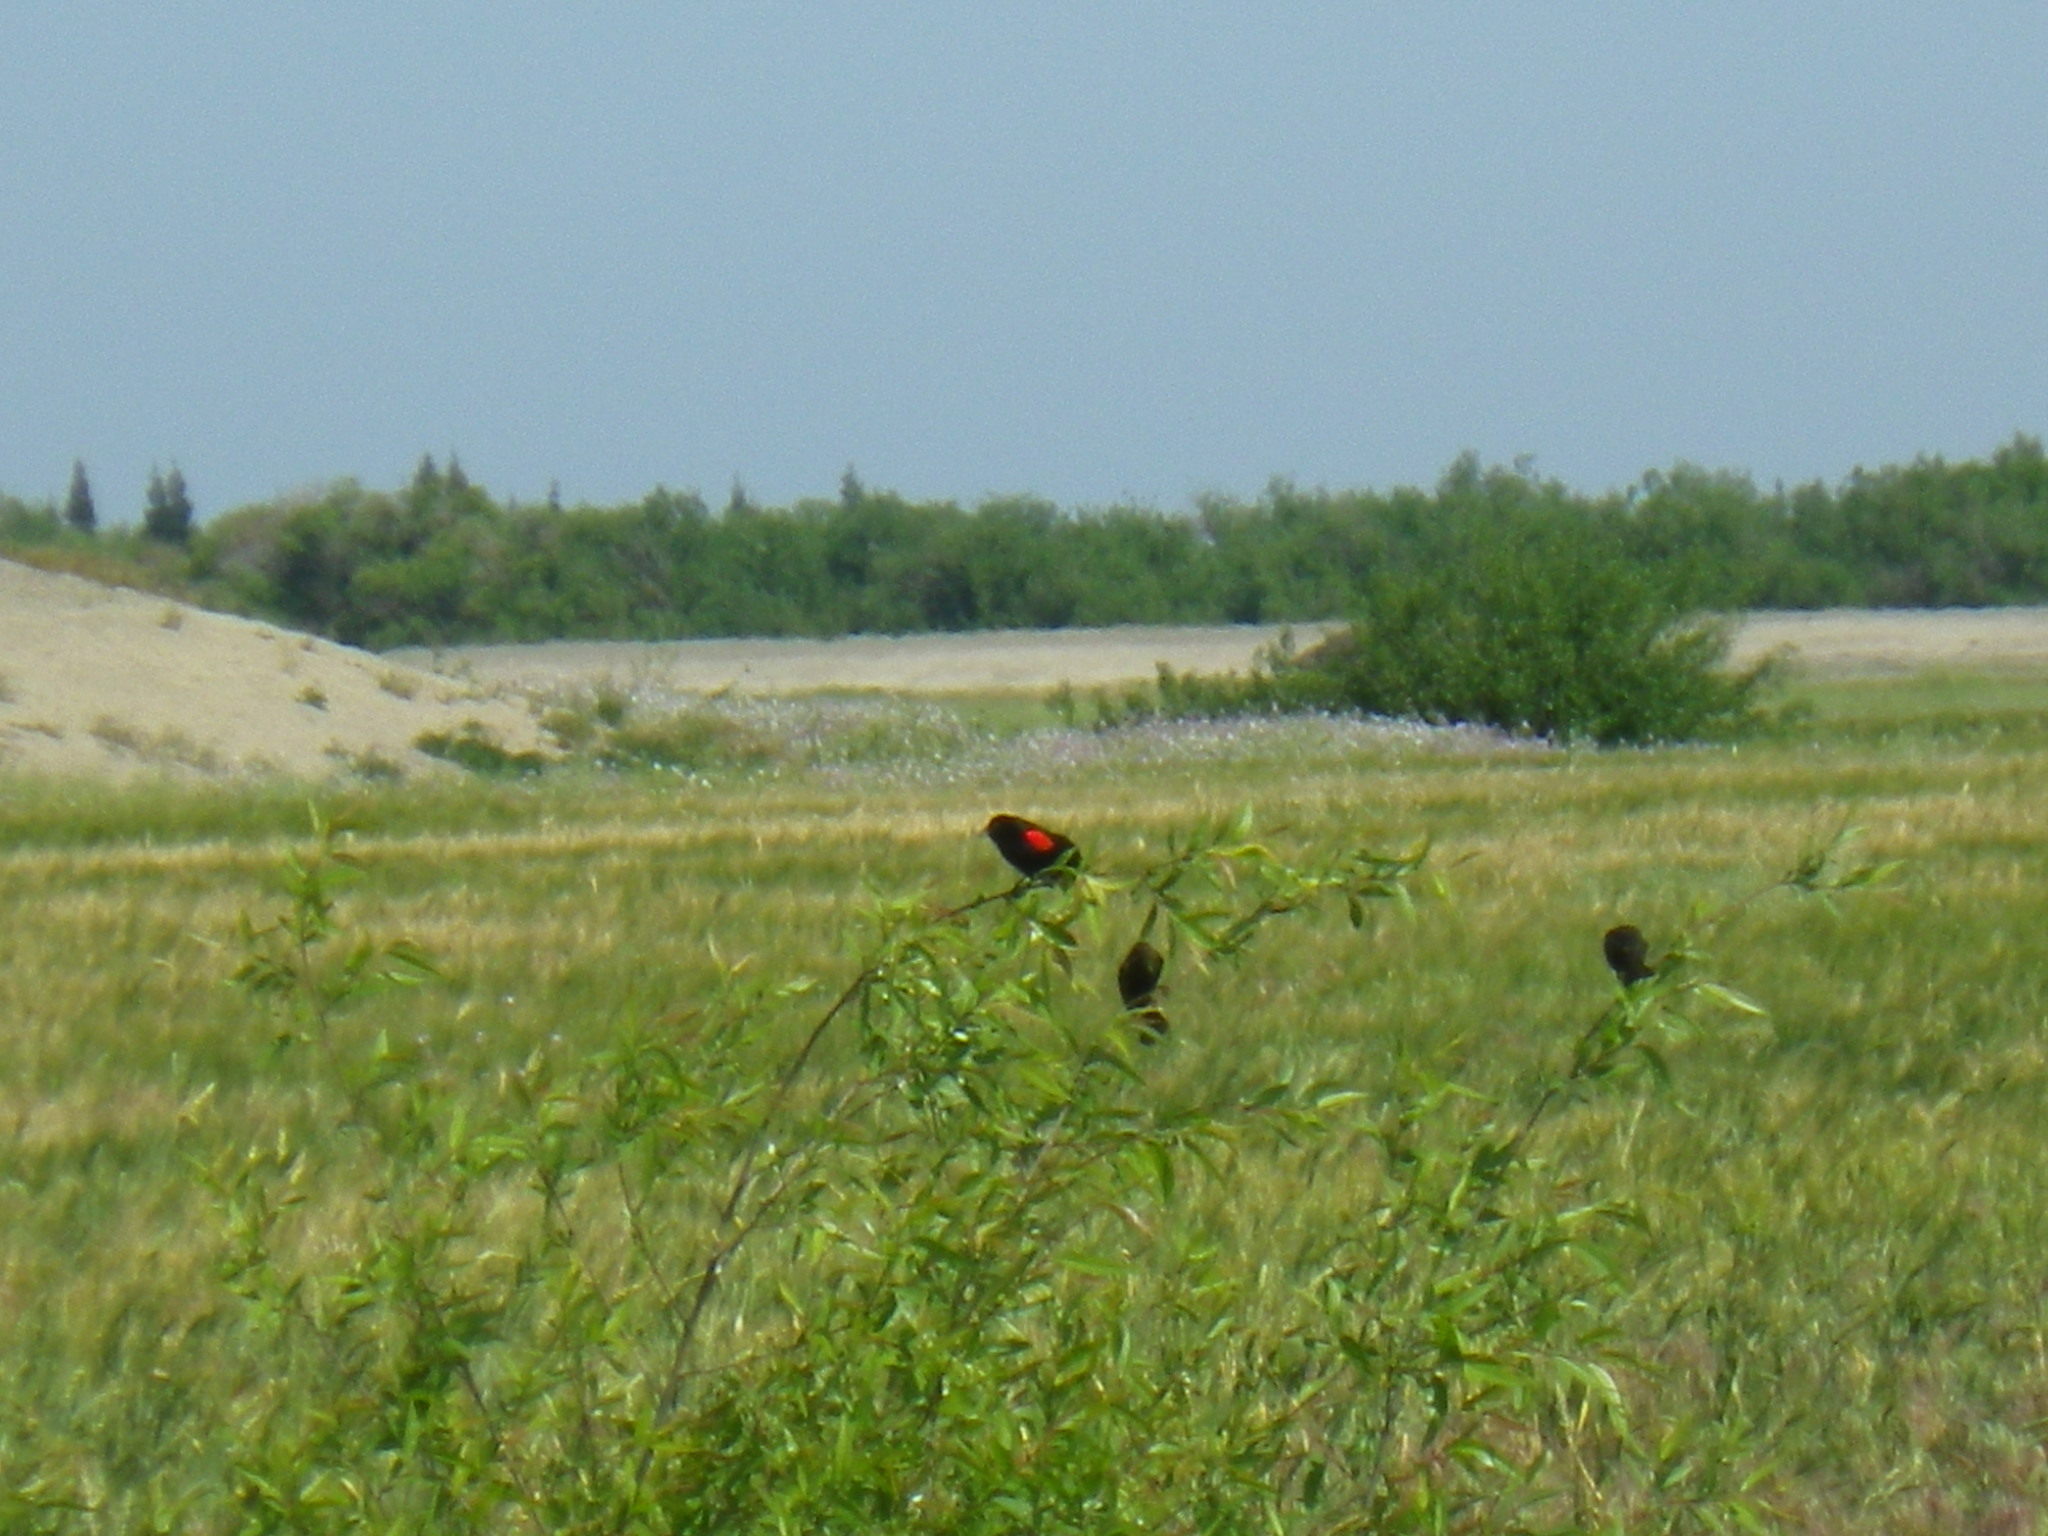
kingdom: Animalia
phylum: Chordata
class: Aves
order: Passeriformes
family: Icteridae
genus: Agelaius
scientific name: Agelaius phoeniceus
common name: Red-winged blackbird
